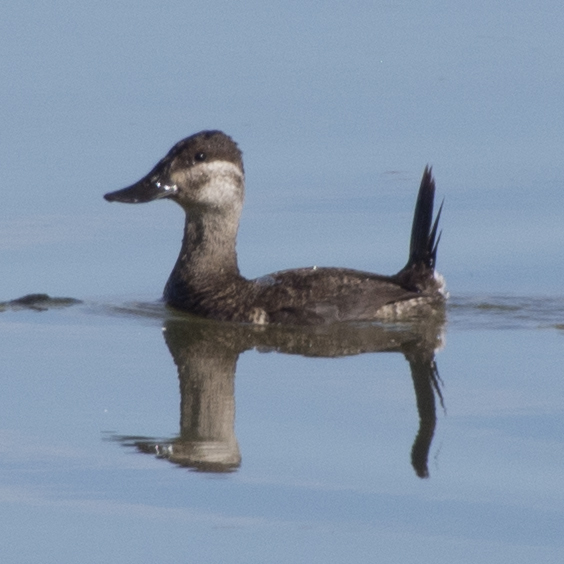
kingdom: Animalia
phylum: Chordata
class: Aves
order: Anseriformes
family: Anatidae
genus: Oxyura
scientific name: Oxyura jamaicensis
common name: Ruddy duck
